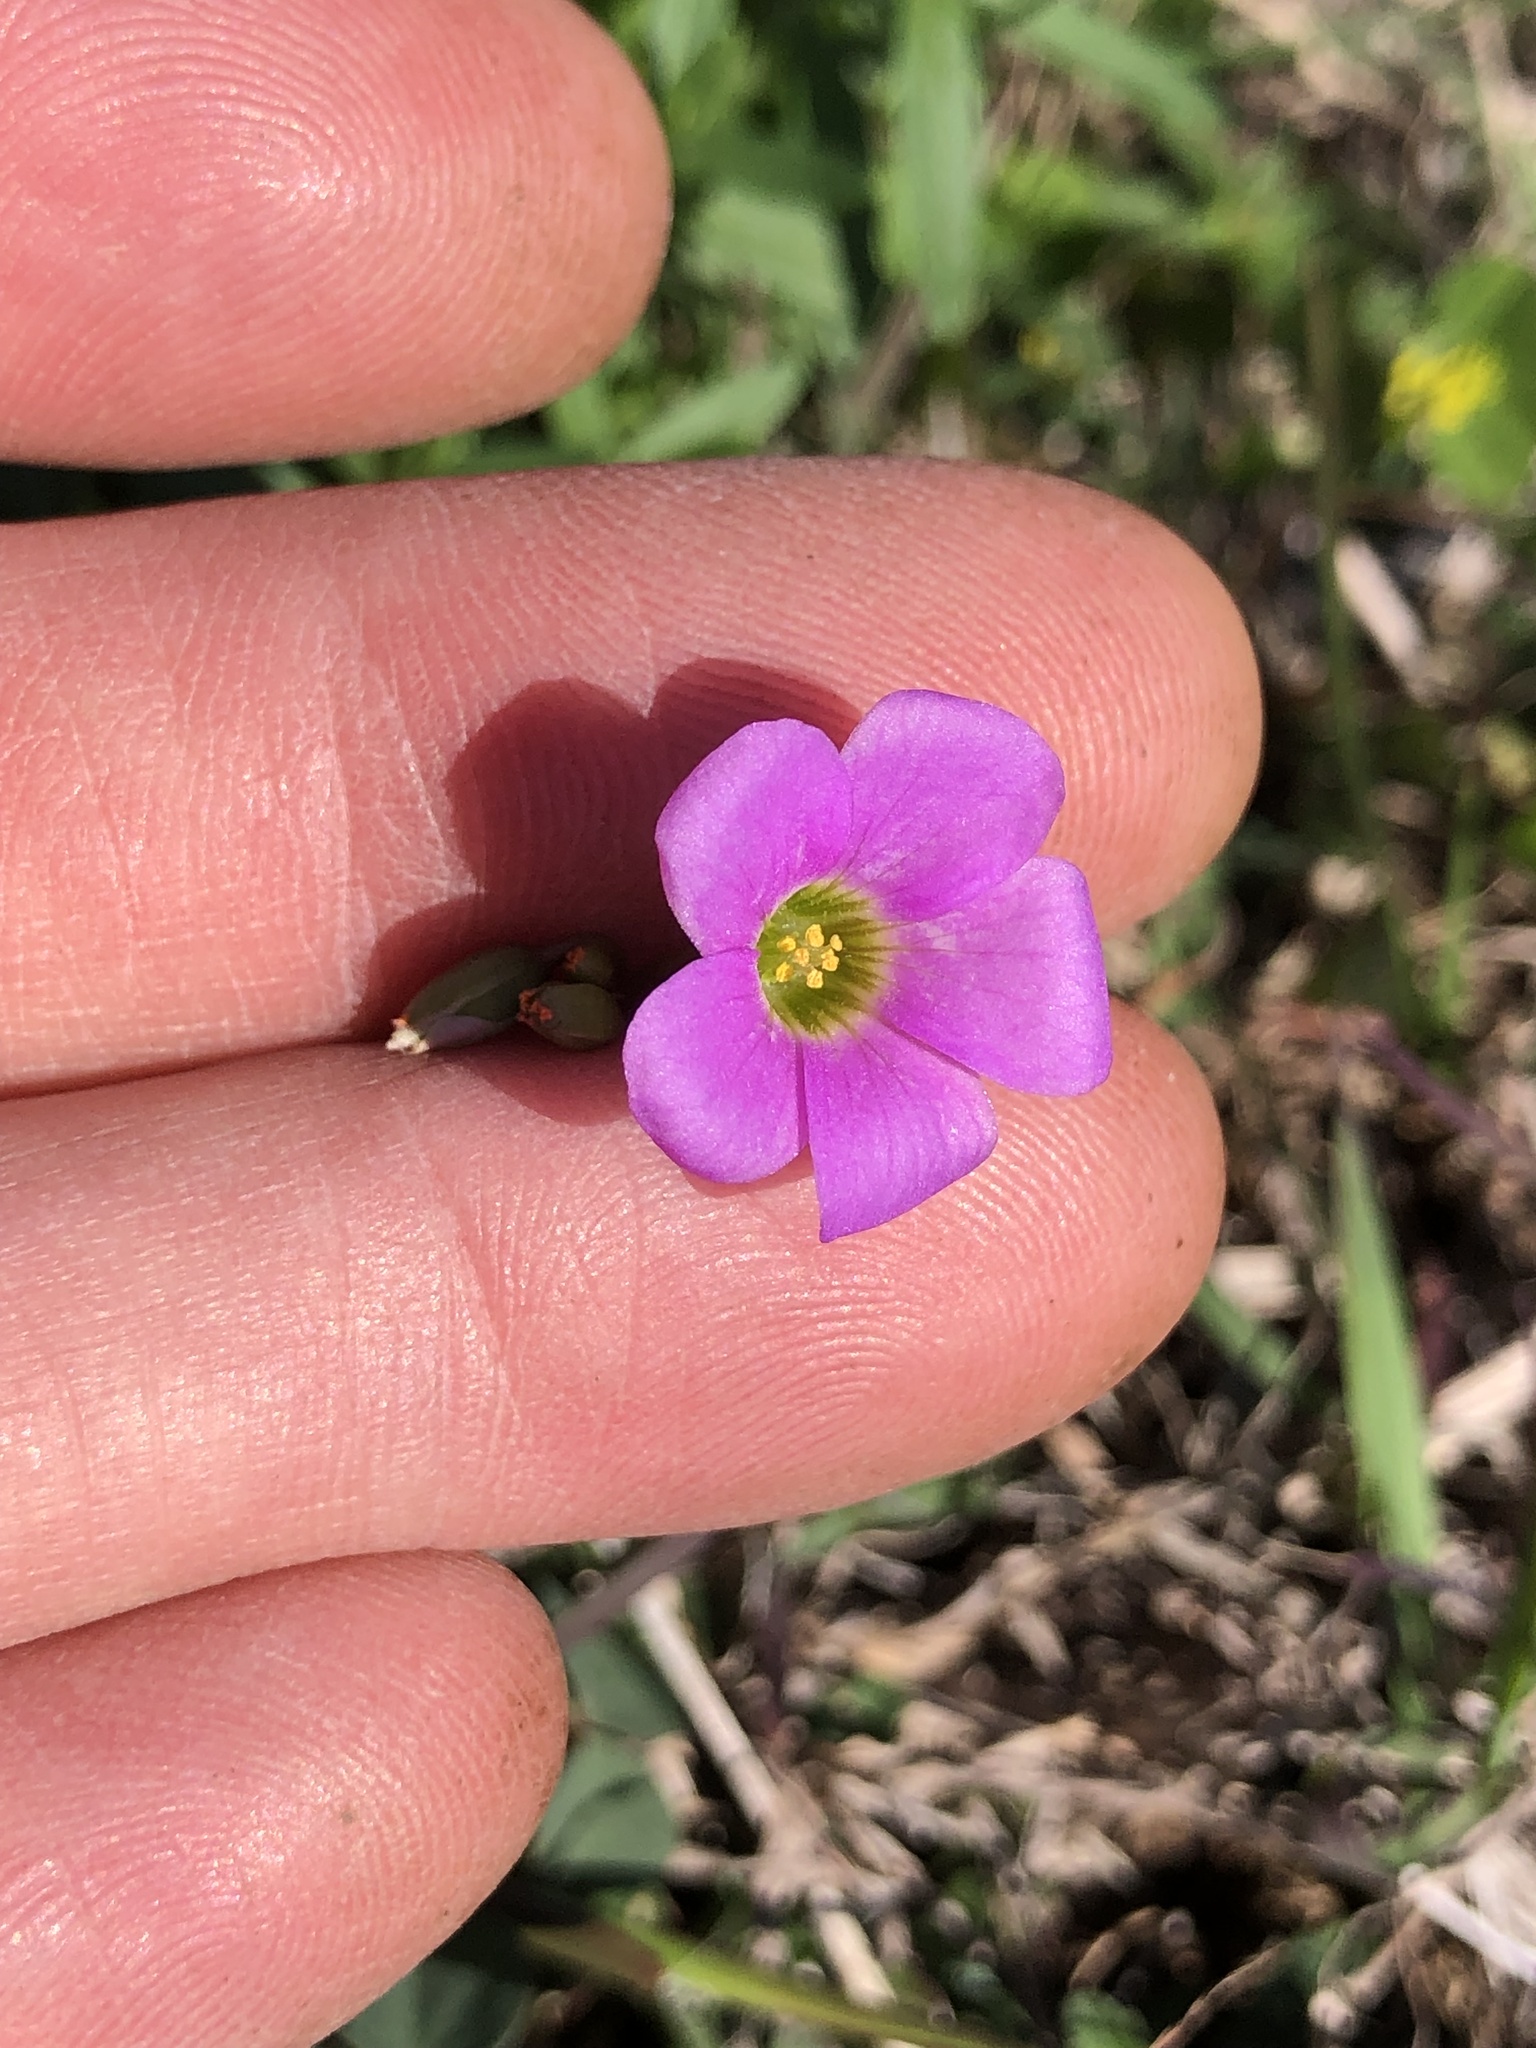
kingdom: Plantae
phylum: Tracheophyta
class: Magnoliopsida
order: Oxalidales
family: Oxalidaceae
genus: Oxalis
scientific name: Oxalis violacea
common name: Violet wood-sorrel
